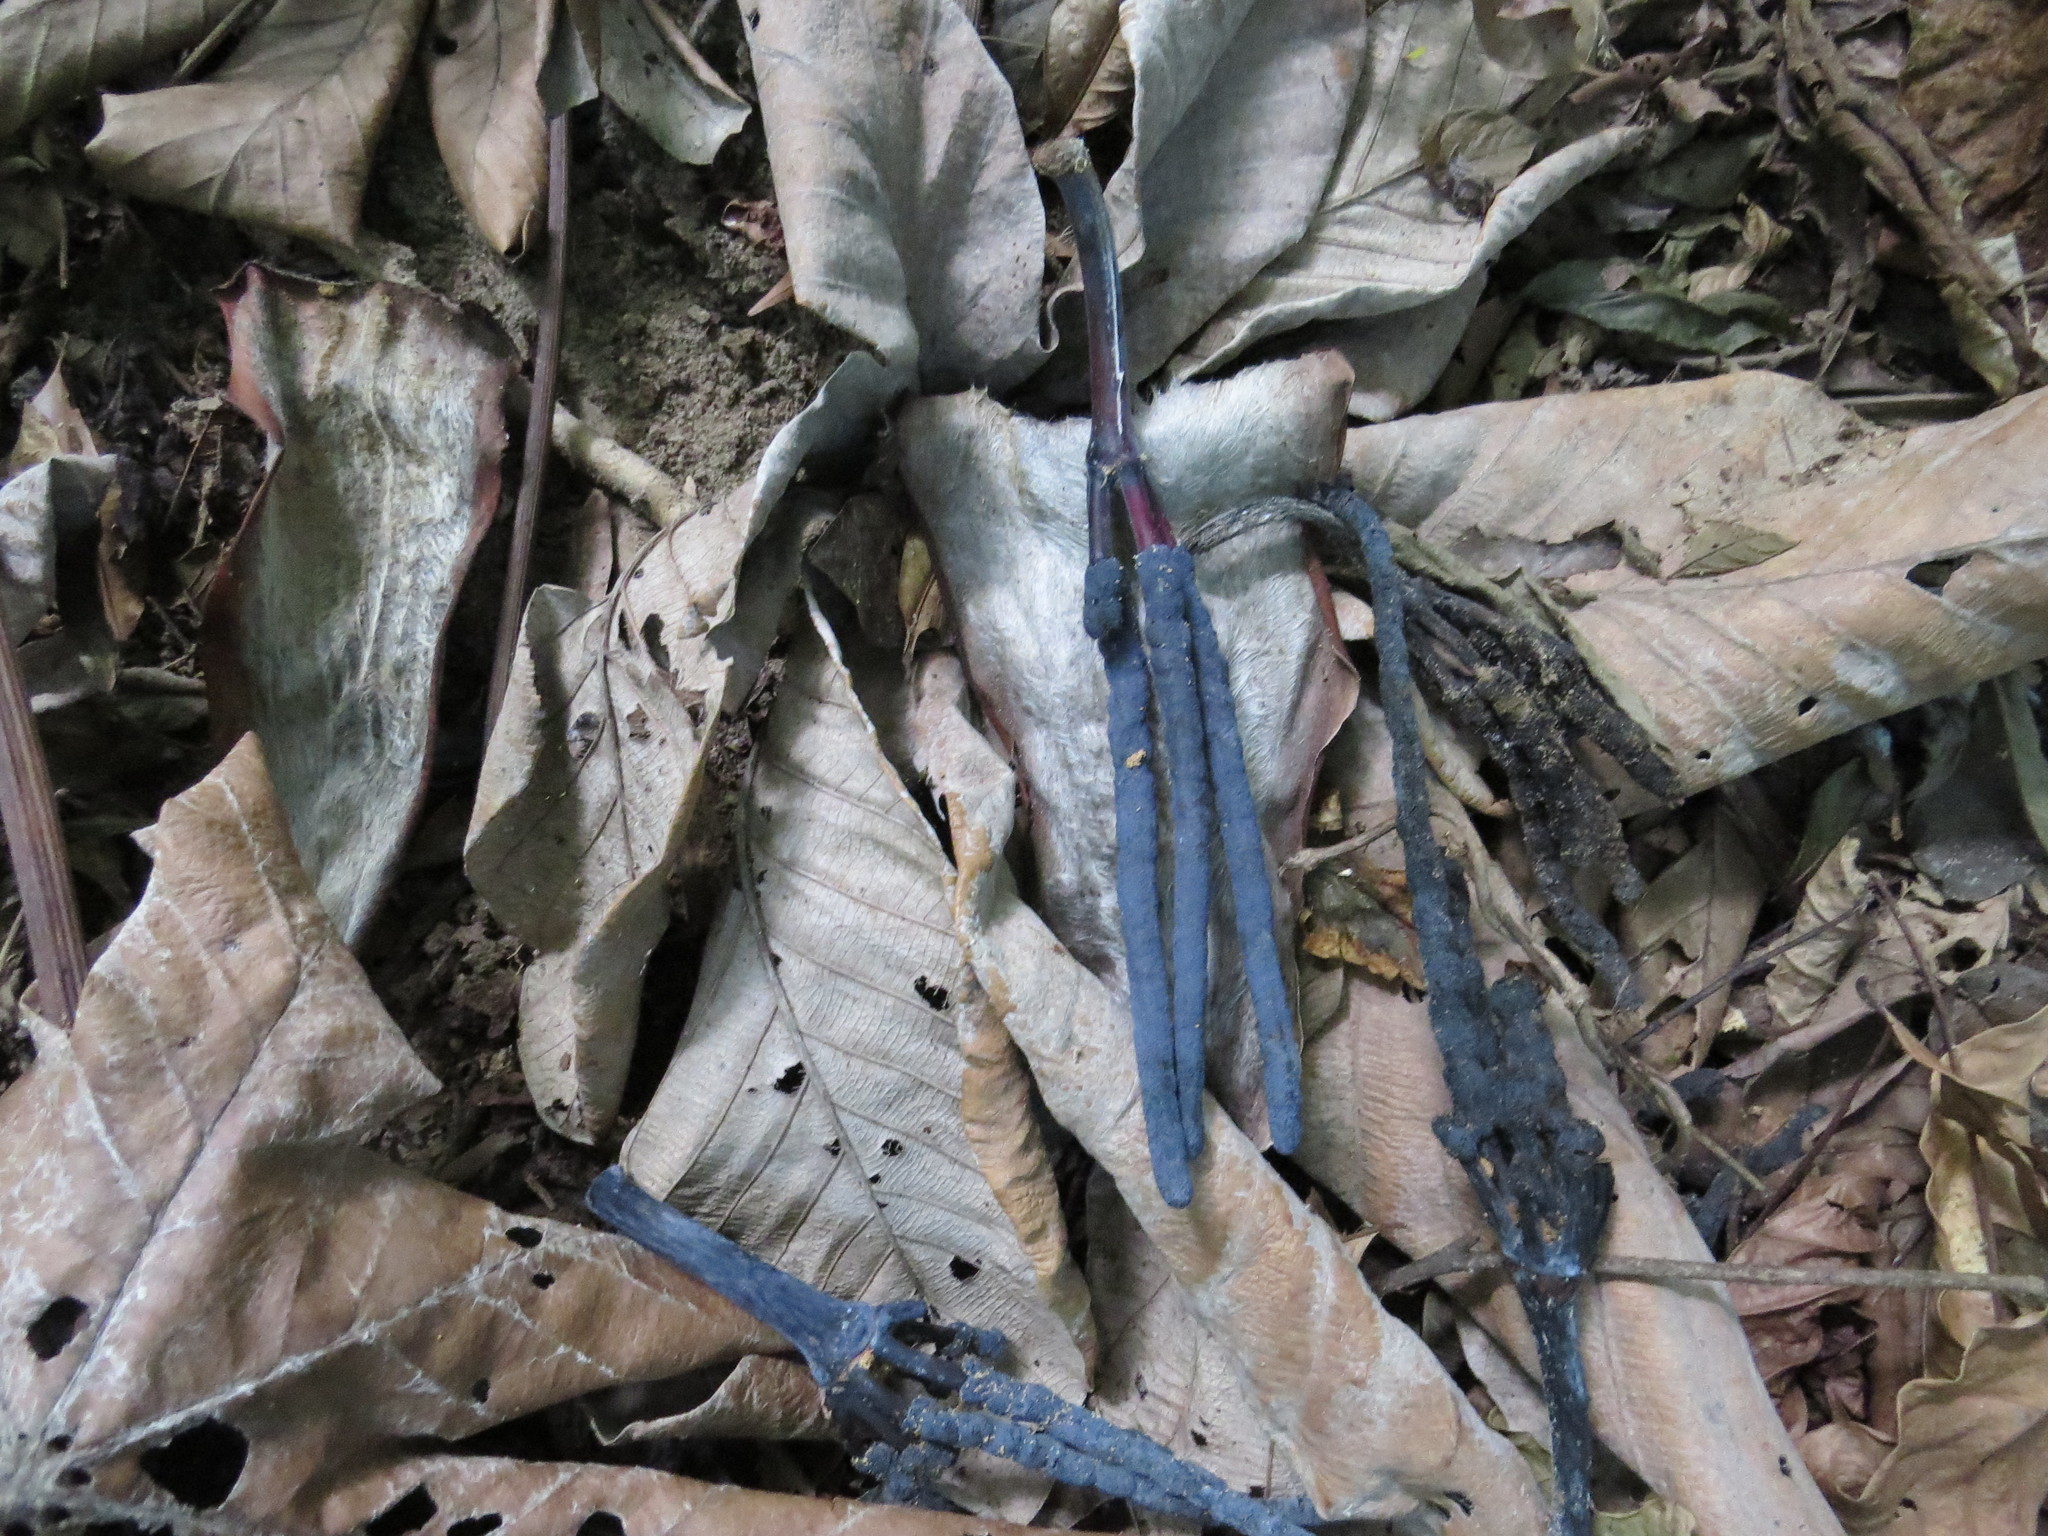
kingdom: Plantae
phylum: Tracheophyta
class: Magnoliopsida
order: Rosales
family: Urticaceae
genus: Cecropia
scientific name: Cecropia hololeuca
